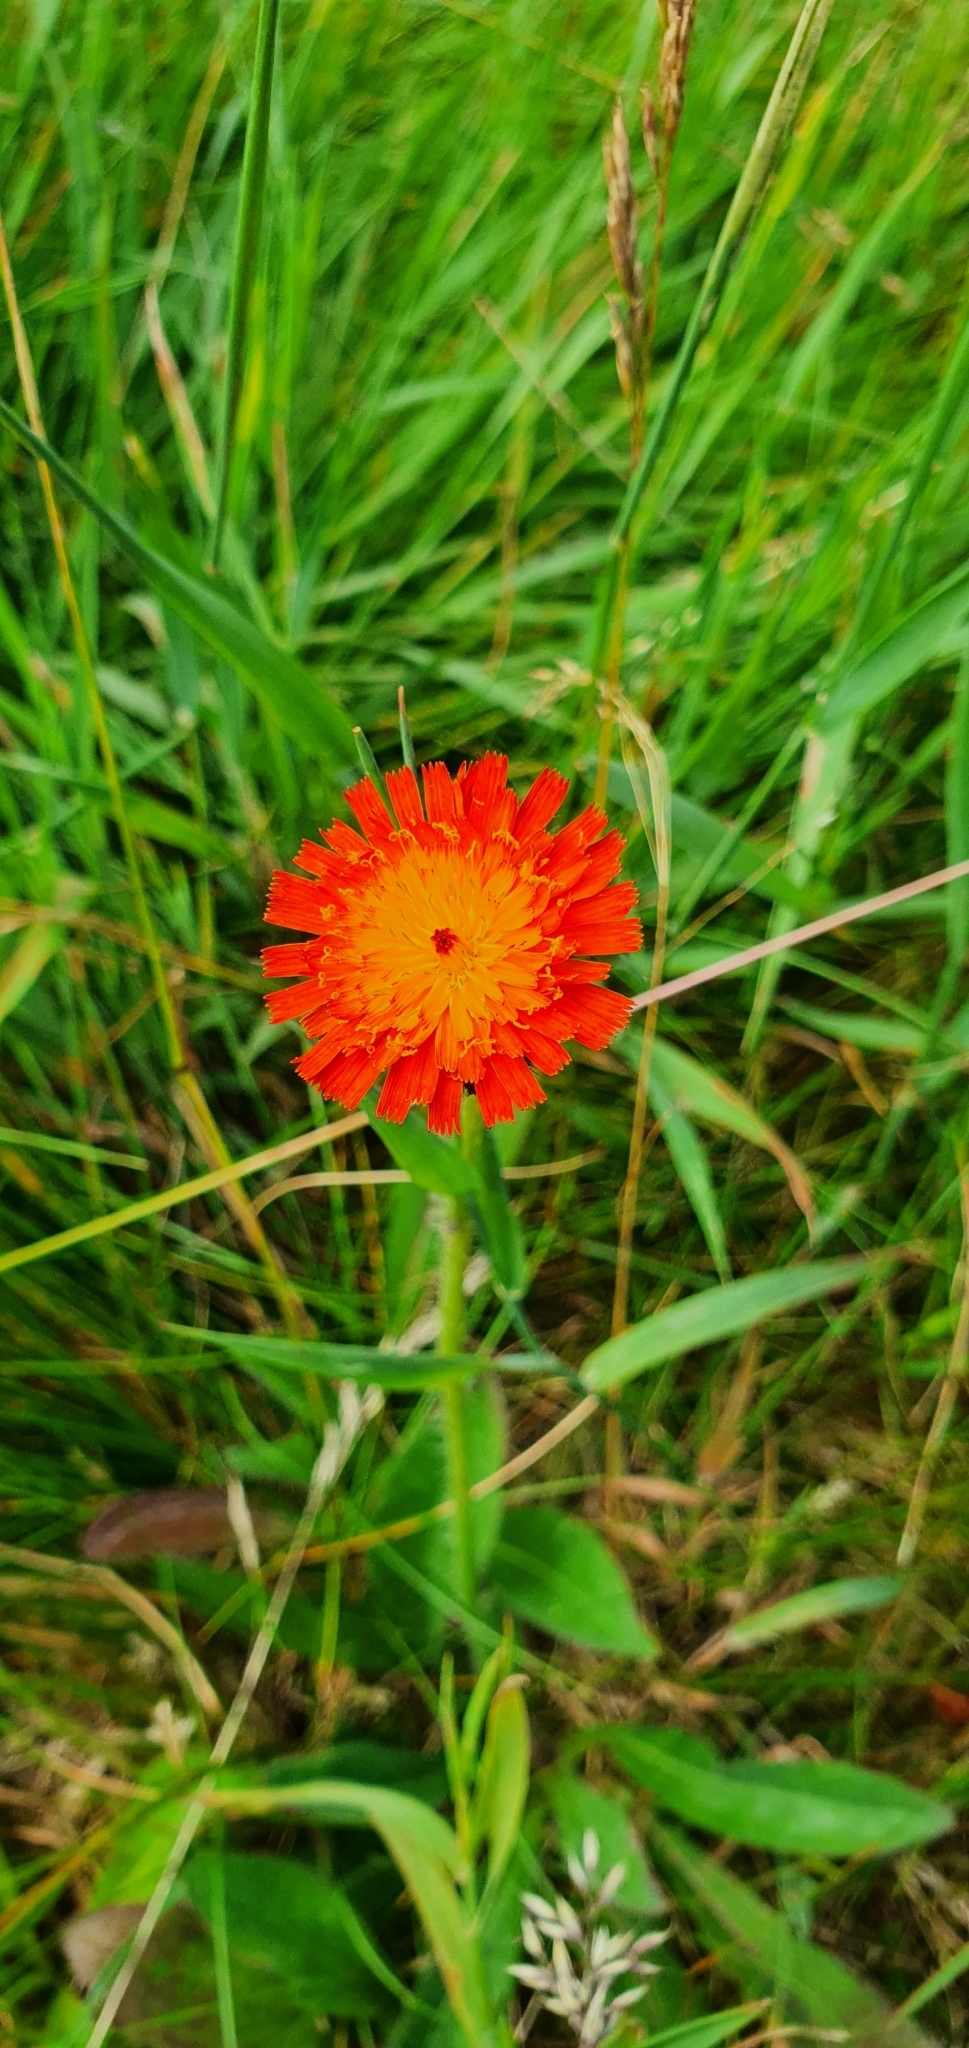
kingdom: Plantae
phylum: Tracheophyta
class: Magnoliopsida
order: Asterales
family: Asteraceae
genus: Pilosella
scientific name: Pilosella aurantiaca
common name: Fox-and-cubs
